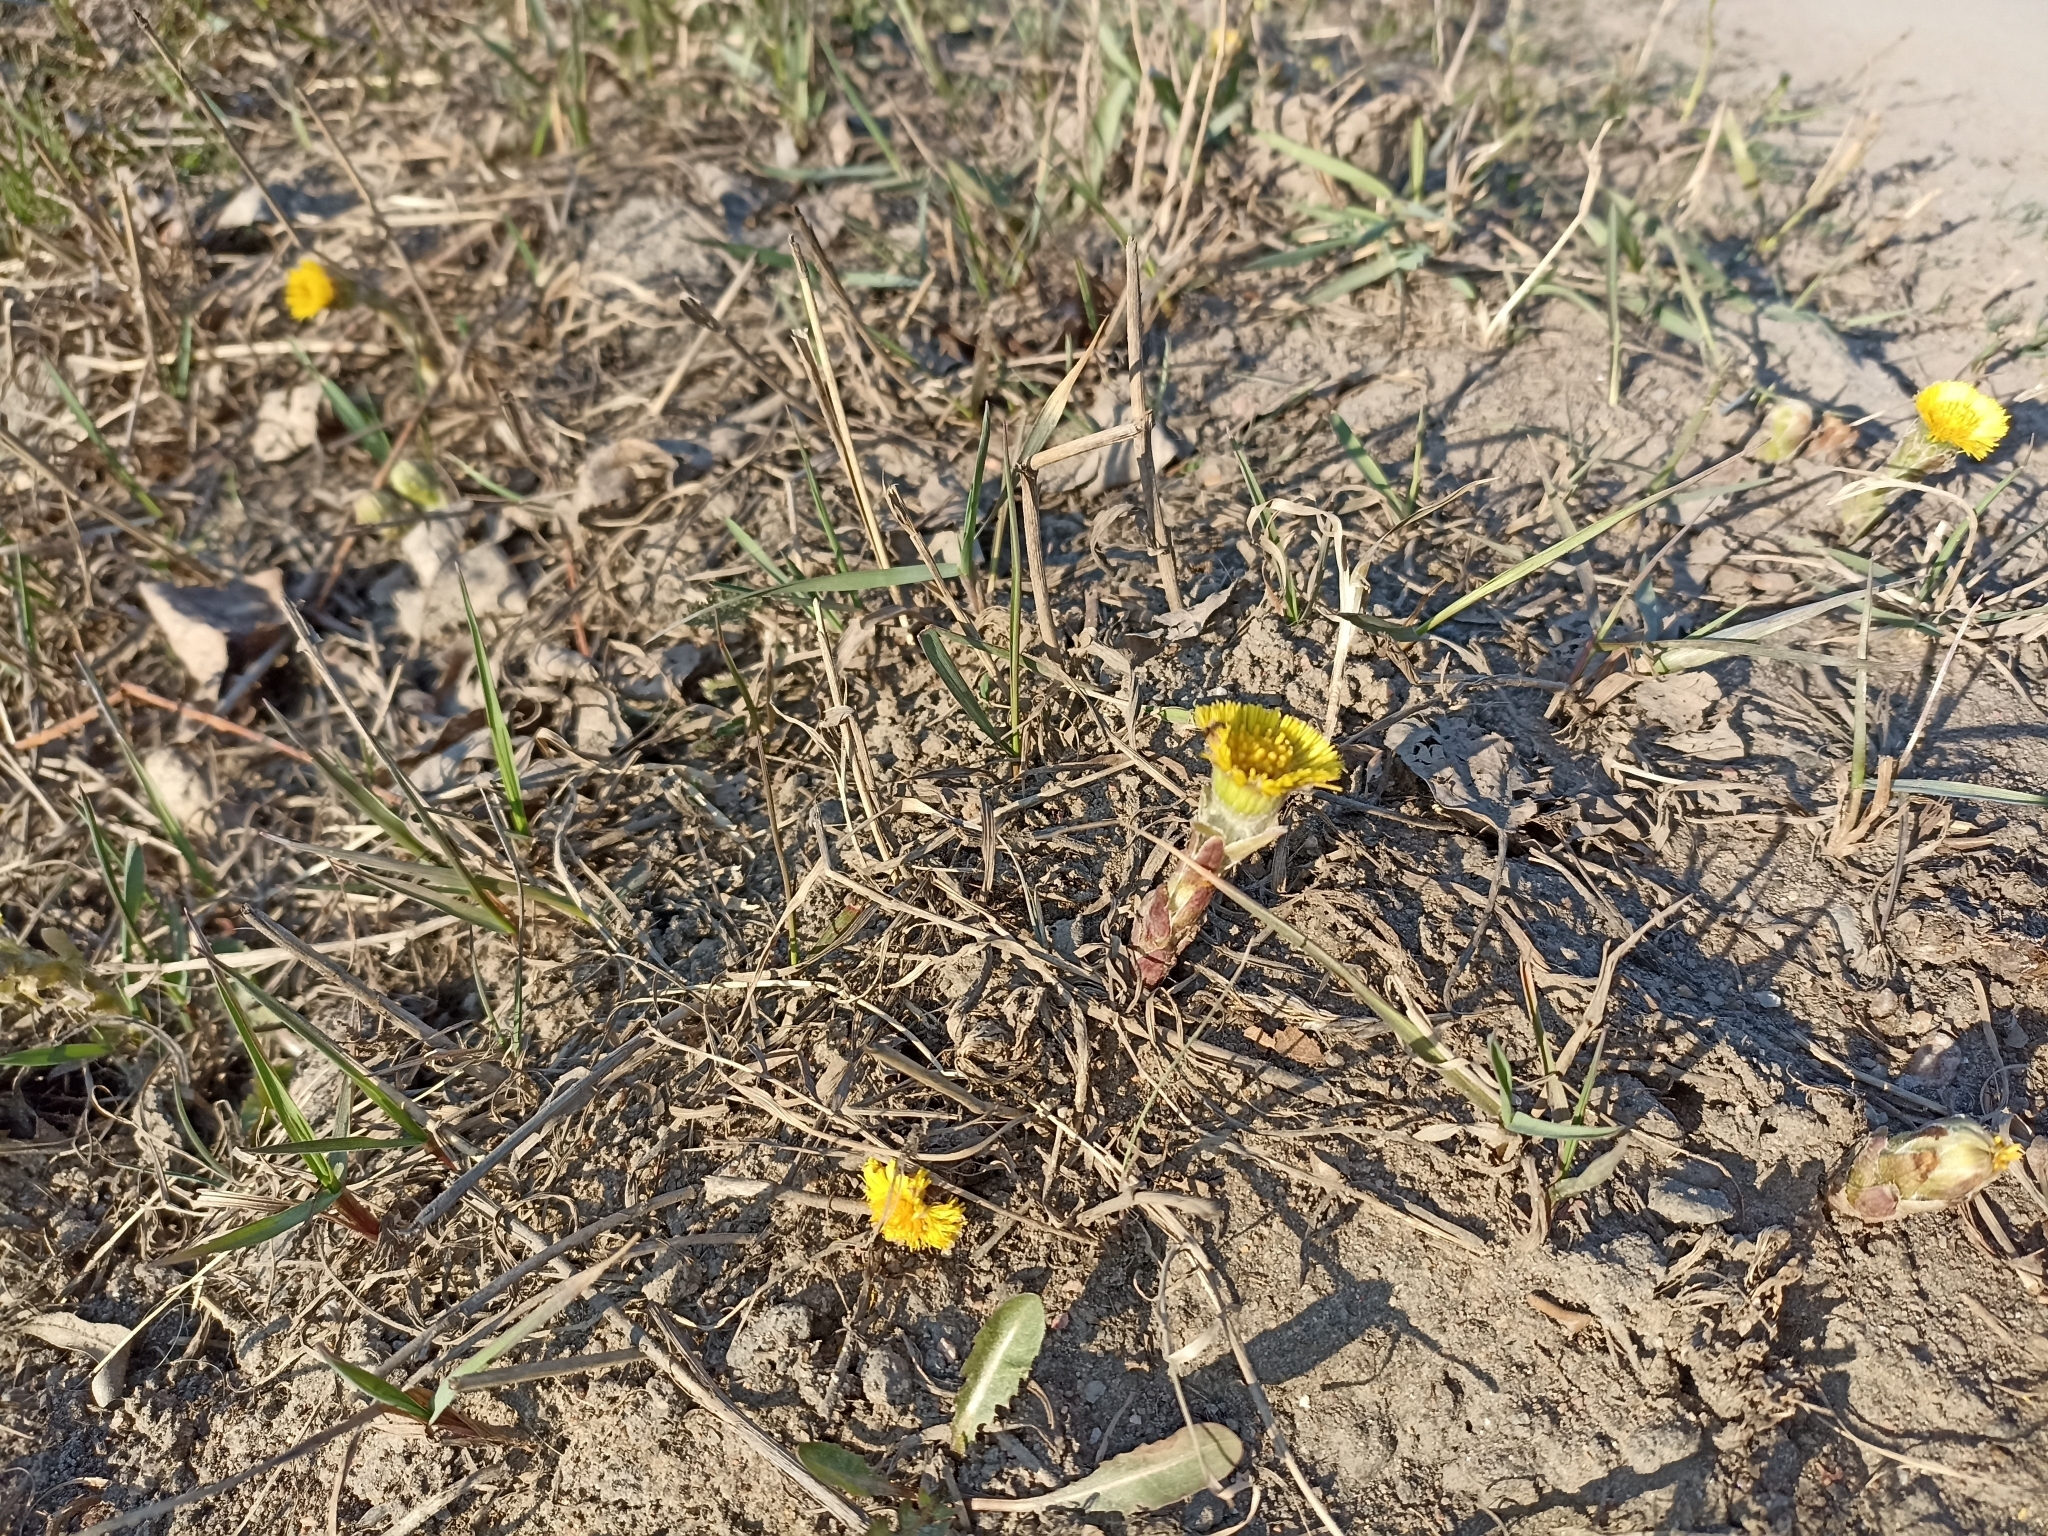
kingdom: Plantae
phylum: Tracheophyta
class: Magnoliopsida
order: Asterales
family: Asteraceae
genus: Tussilago
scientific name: Tussilago farfara
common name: Coltsfoot
